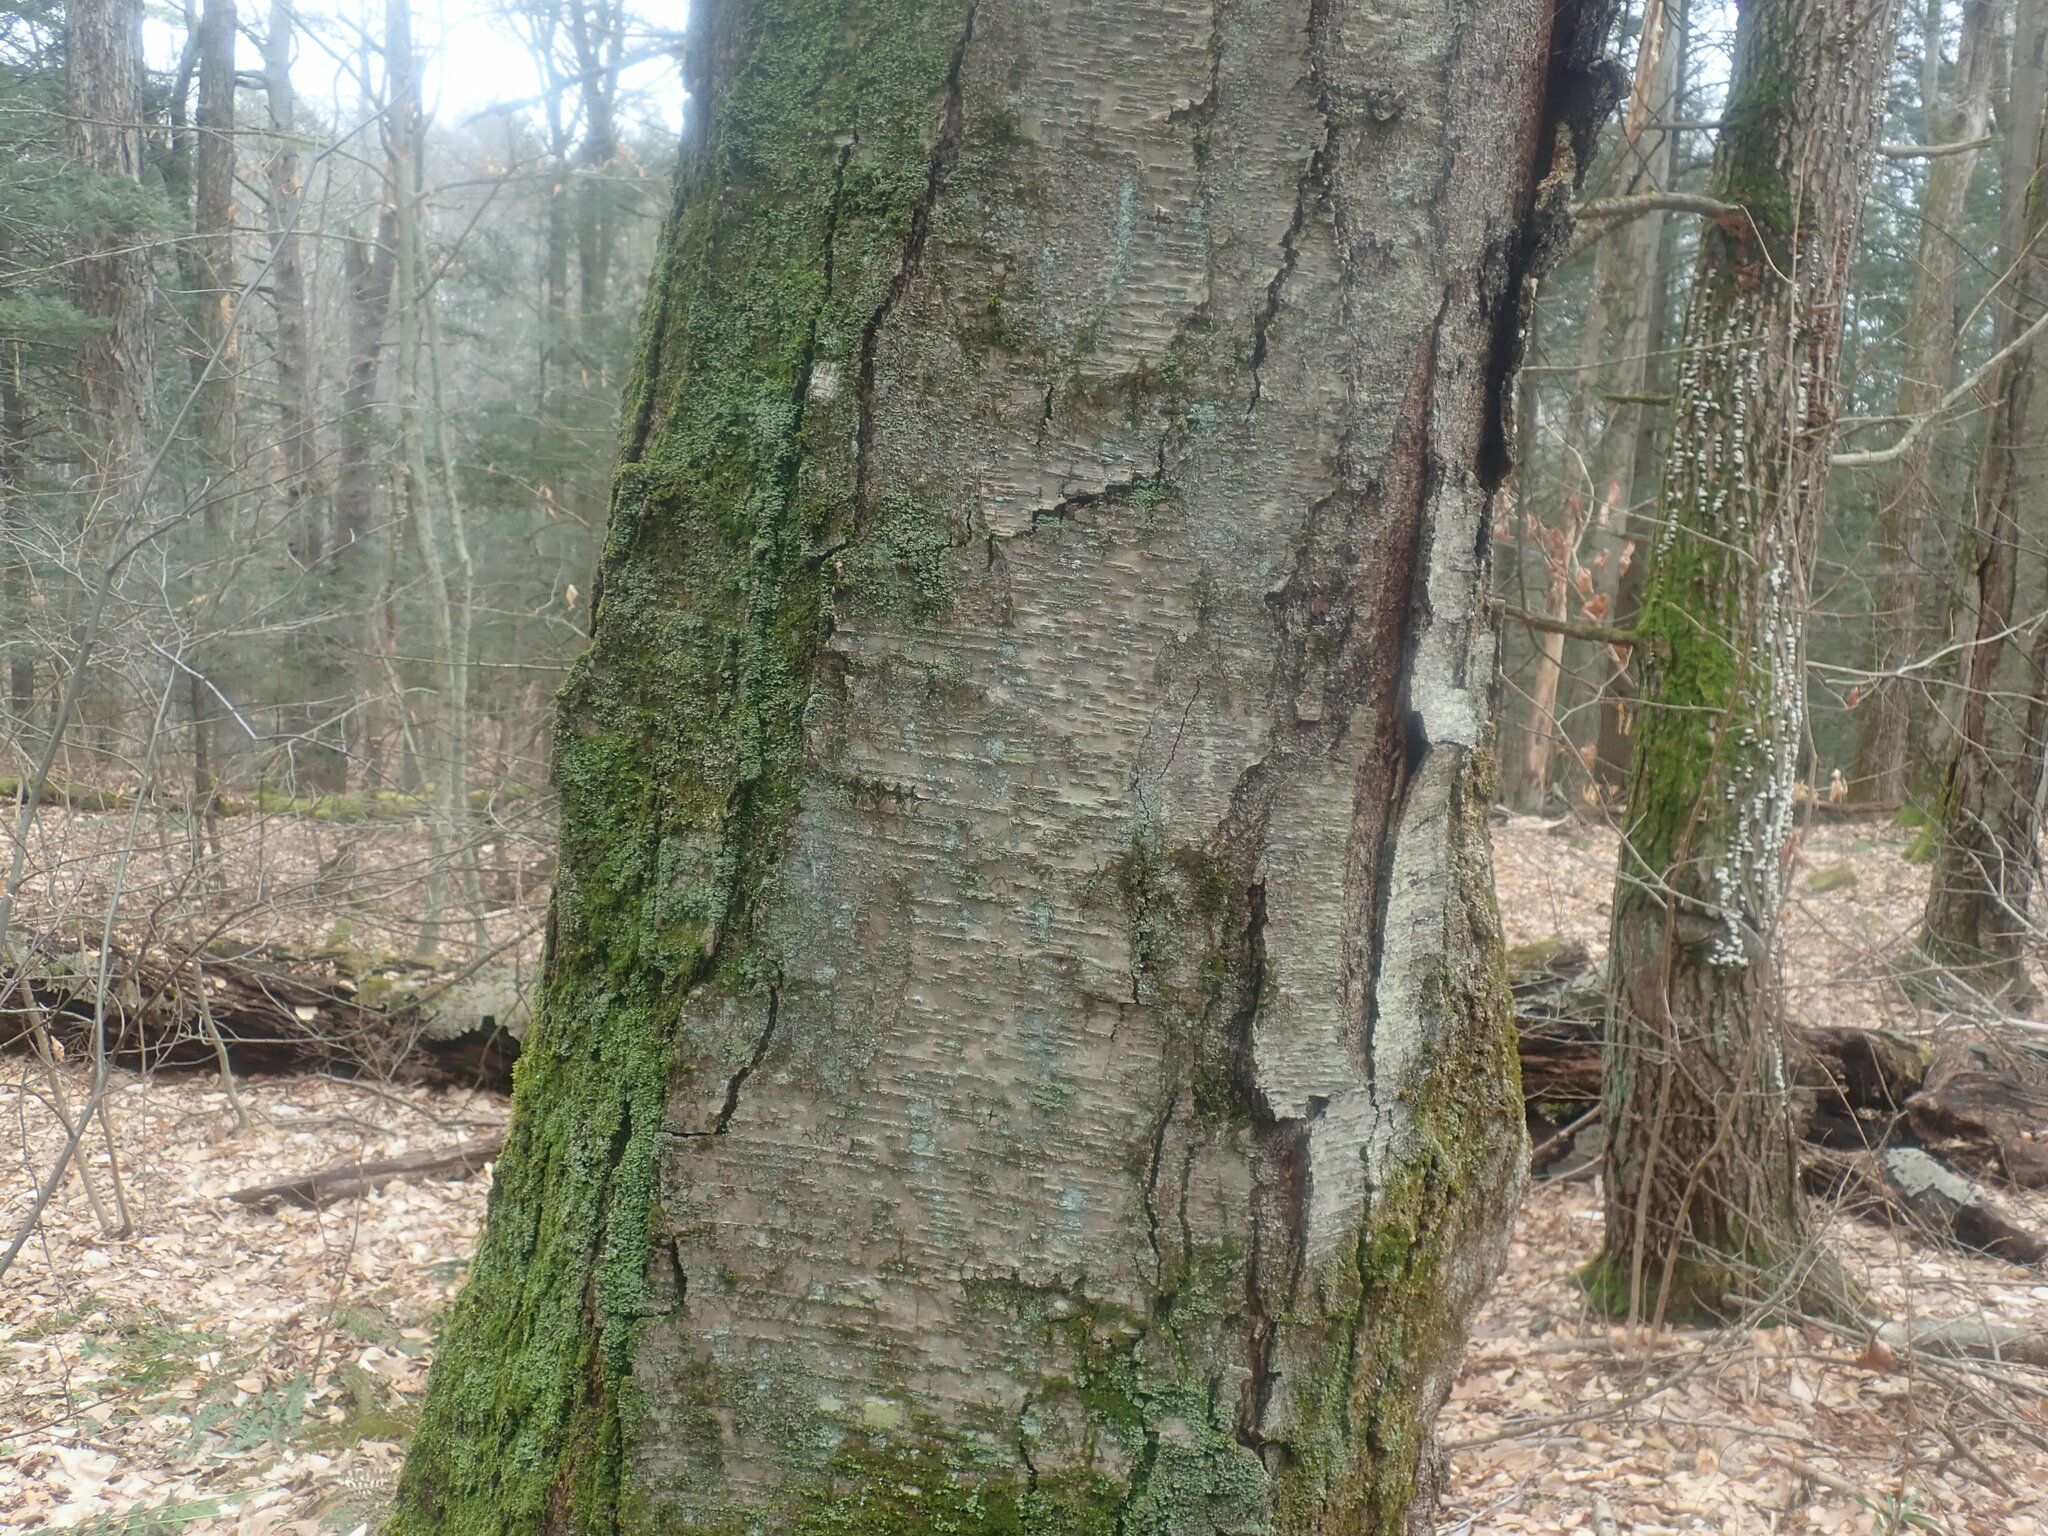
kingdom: Plantae
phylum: Tracheophyta
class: Magnoliopsida
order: Fagales
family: Betulaceae
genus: Betula
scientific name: Betula lenta
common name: Black birch
